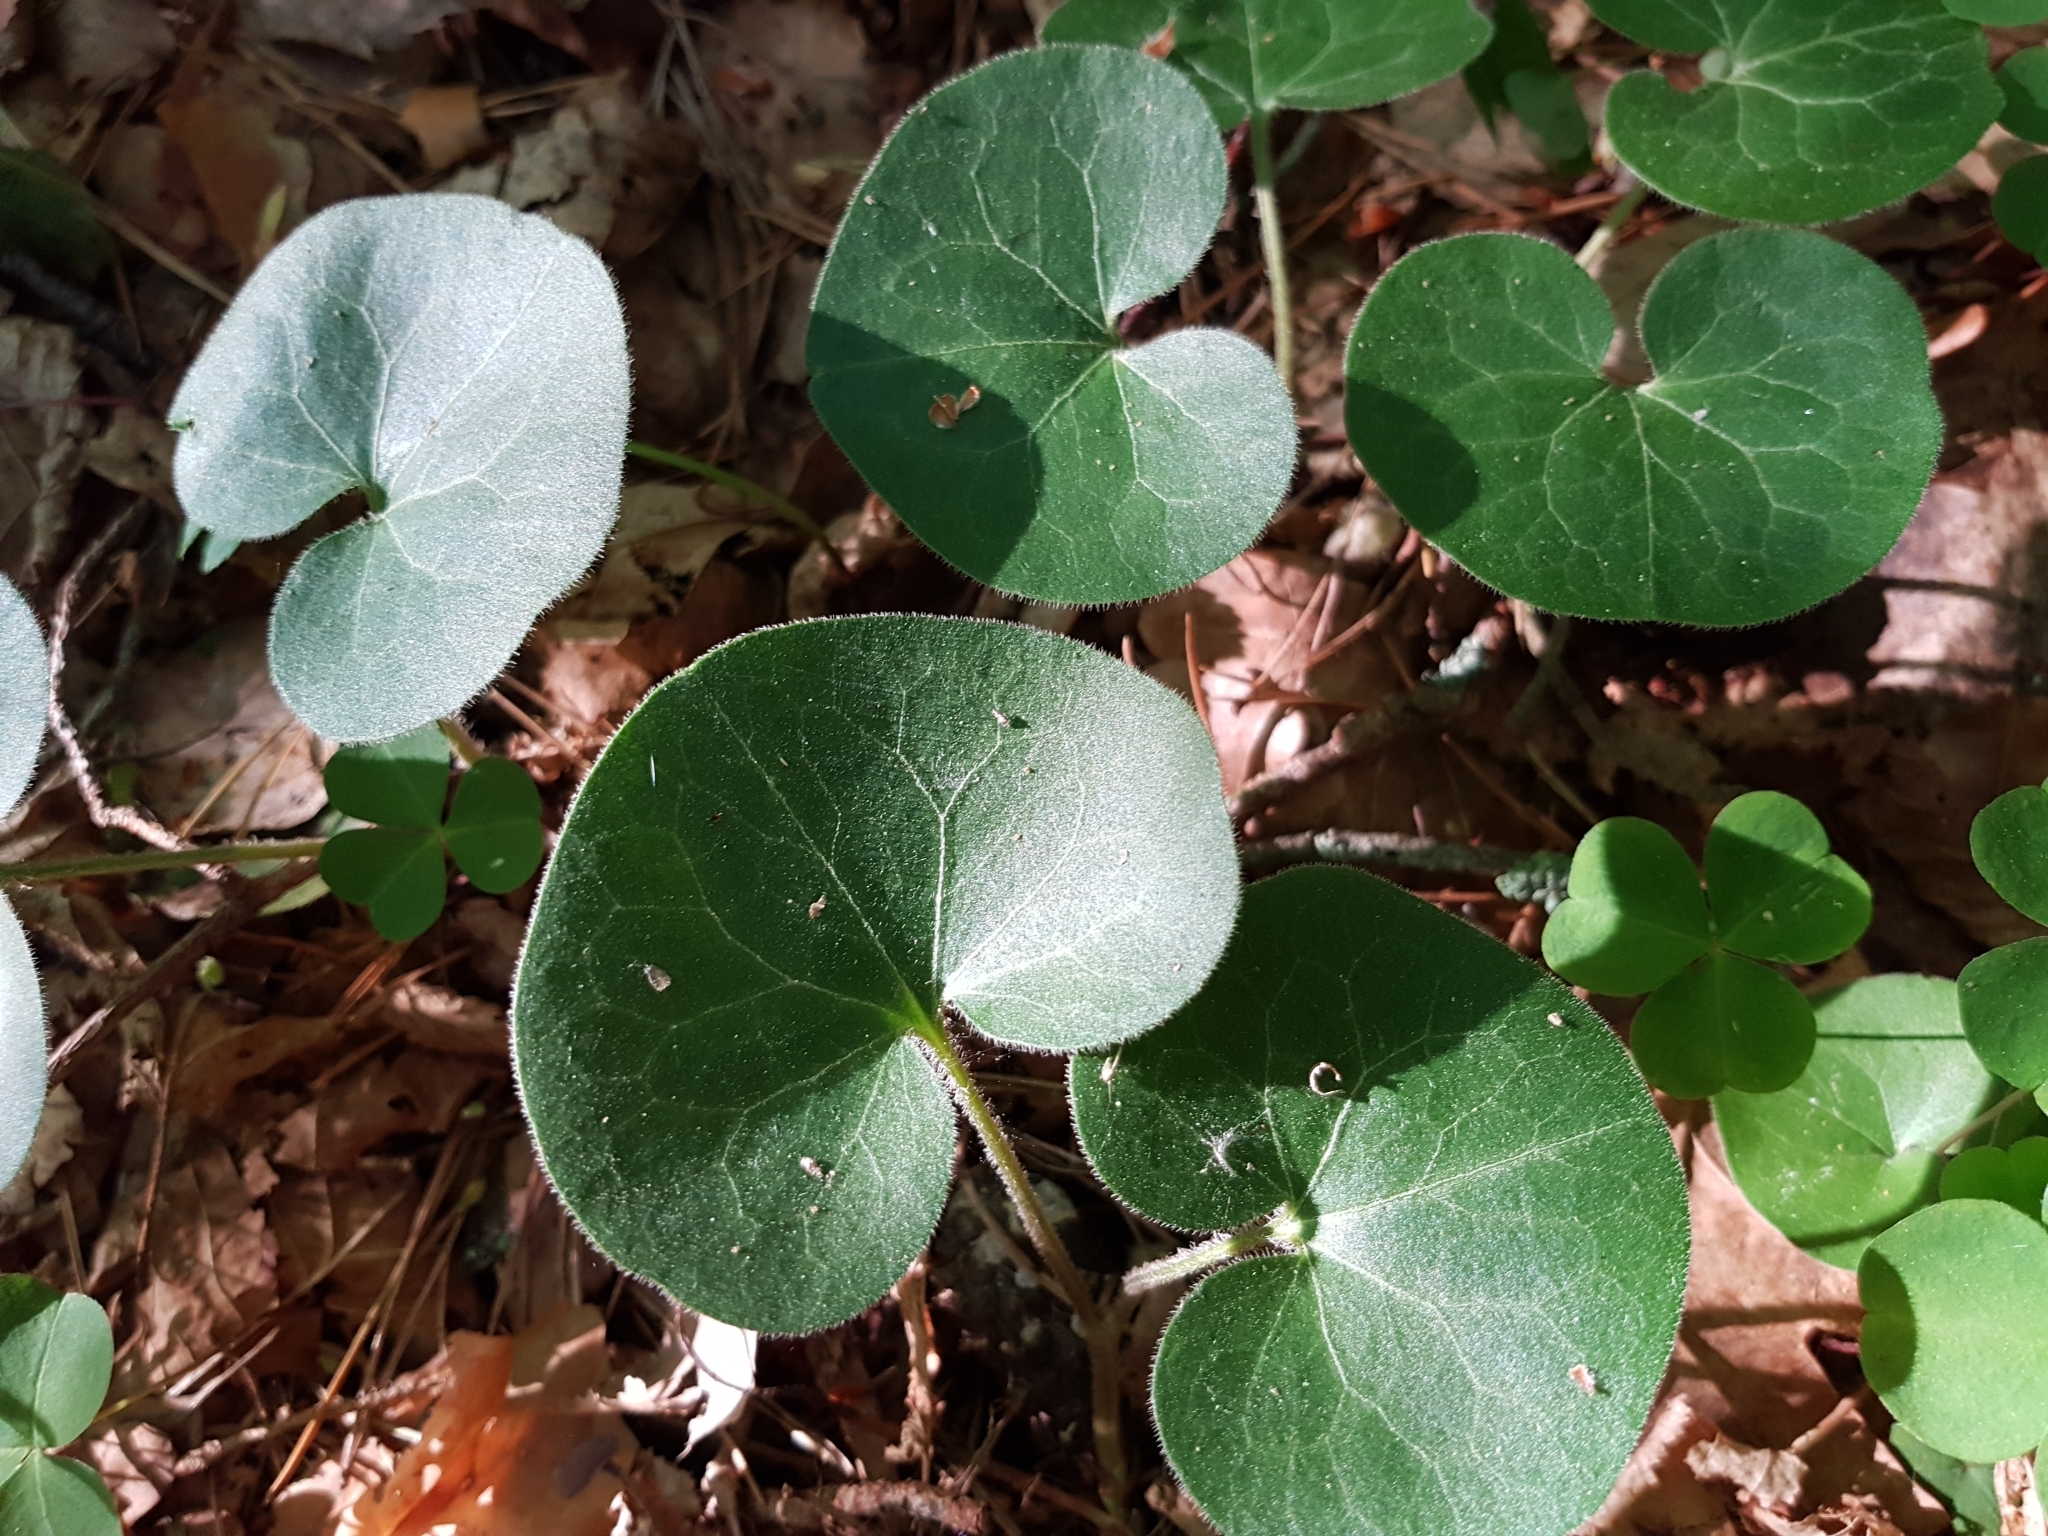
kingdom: Plantae
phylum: Tracheophyta
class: Magnoliopsida
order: Piperales
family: Aristolochiaceae
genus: Asarum
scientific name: Asarum europaeum
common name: Asarabacca
